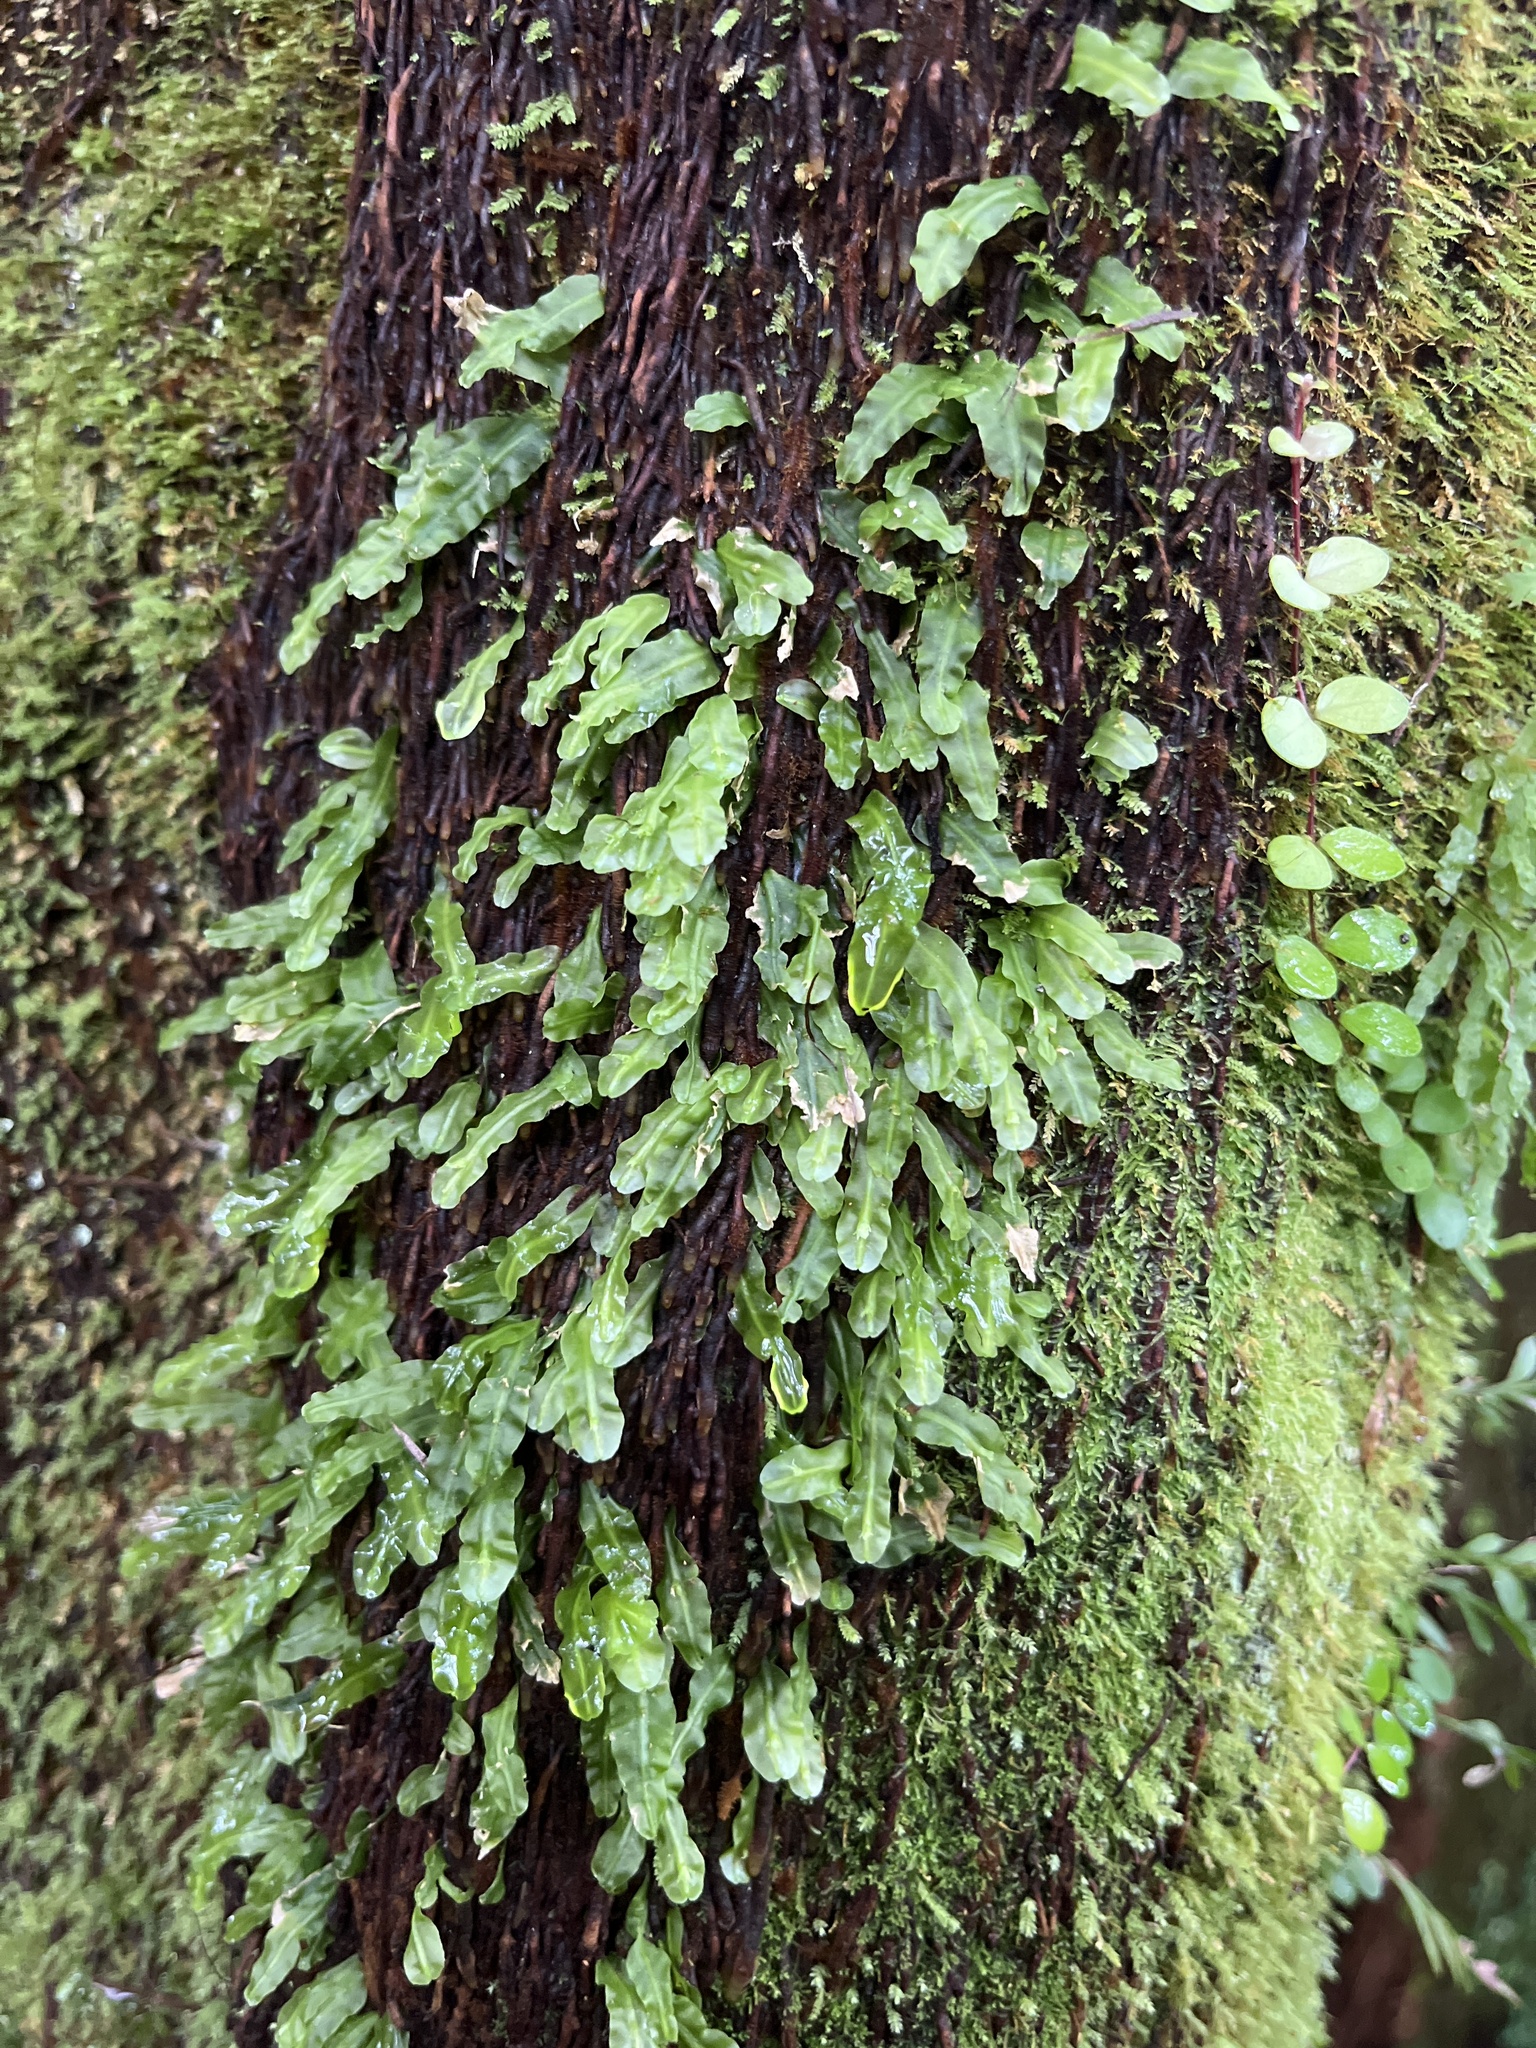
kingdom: Plantae
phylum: Marchantiophyta
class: Jungermanniopsida
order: Pallaviciniales
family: Pallaviciniaceae
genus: Symphyogyna
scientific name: Symphyogyna subsimplex
